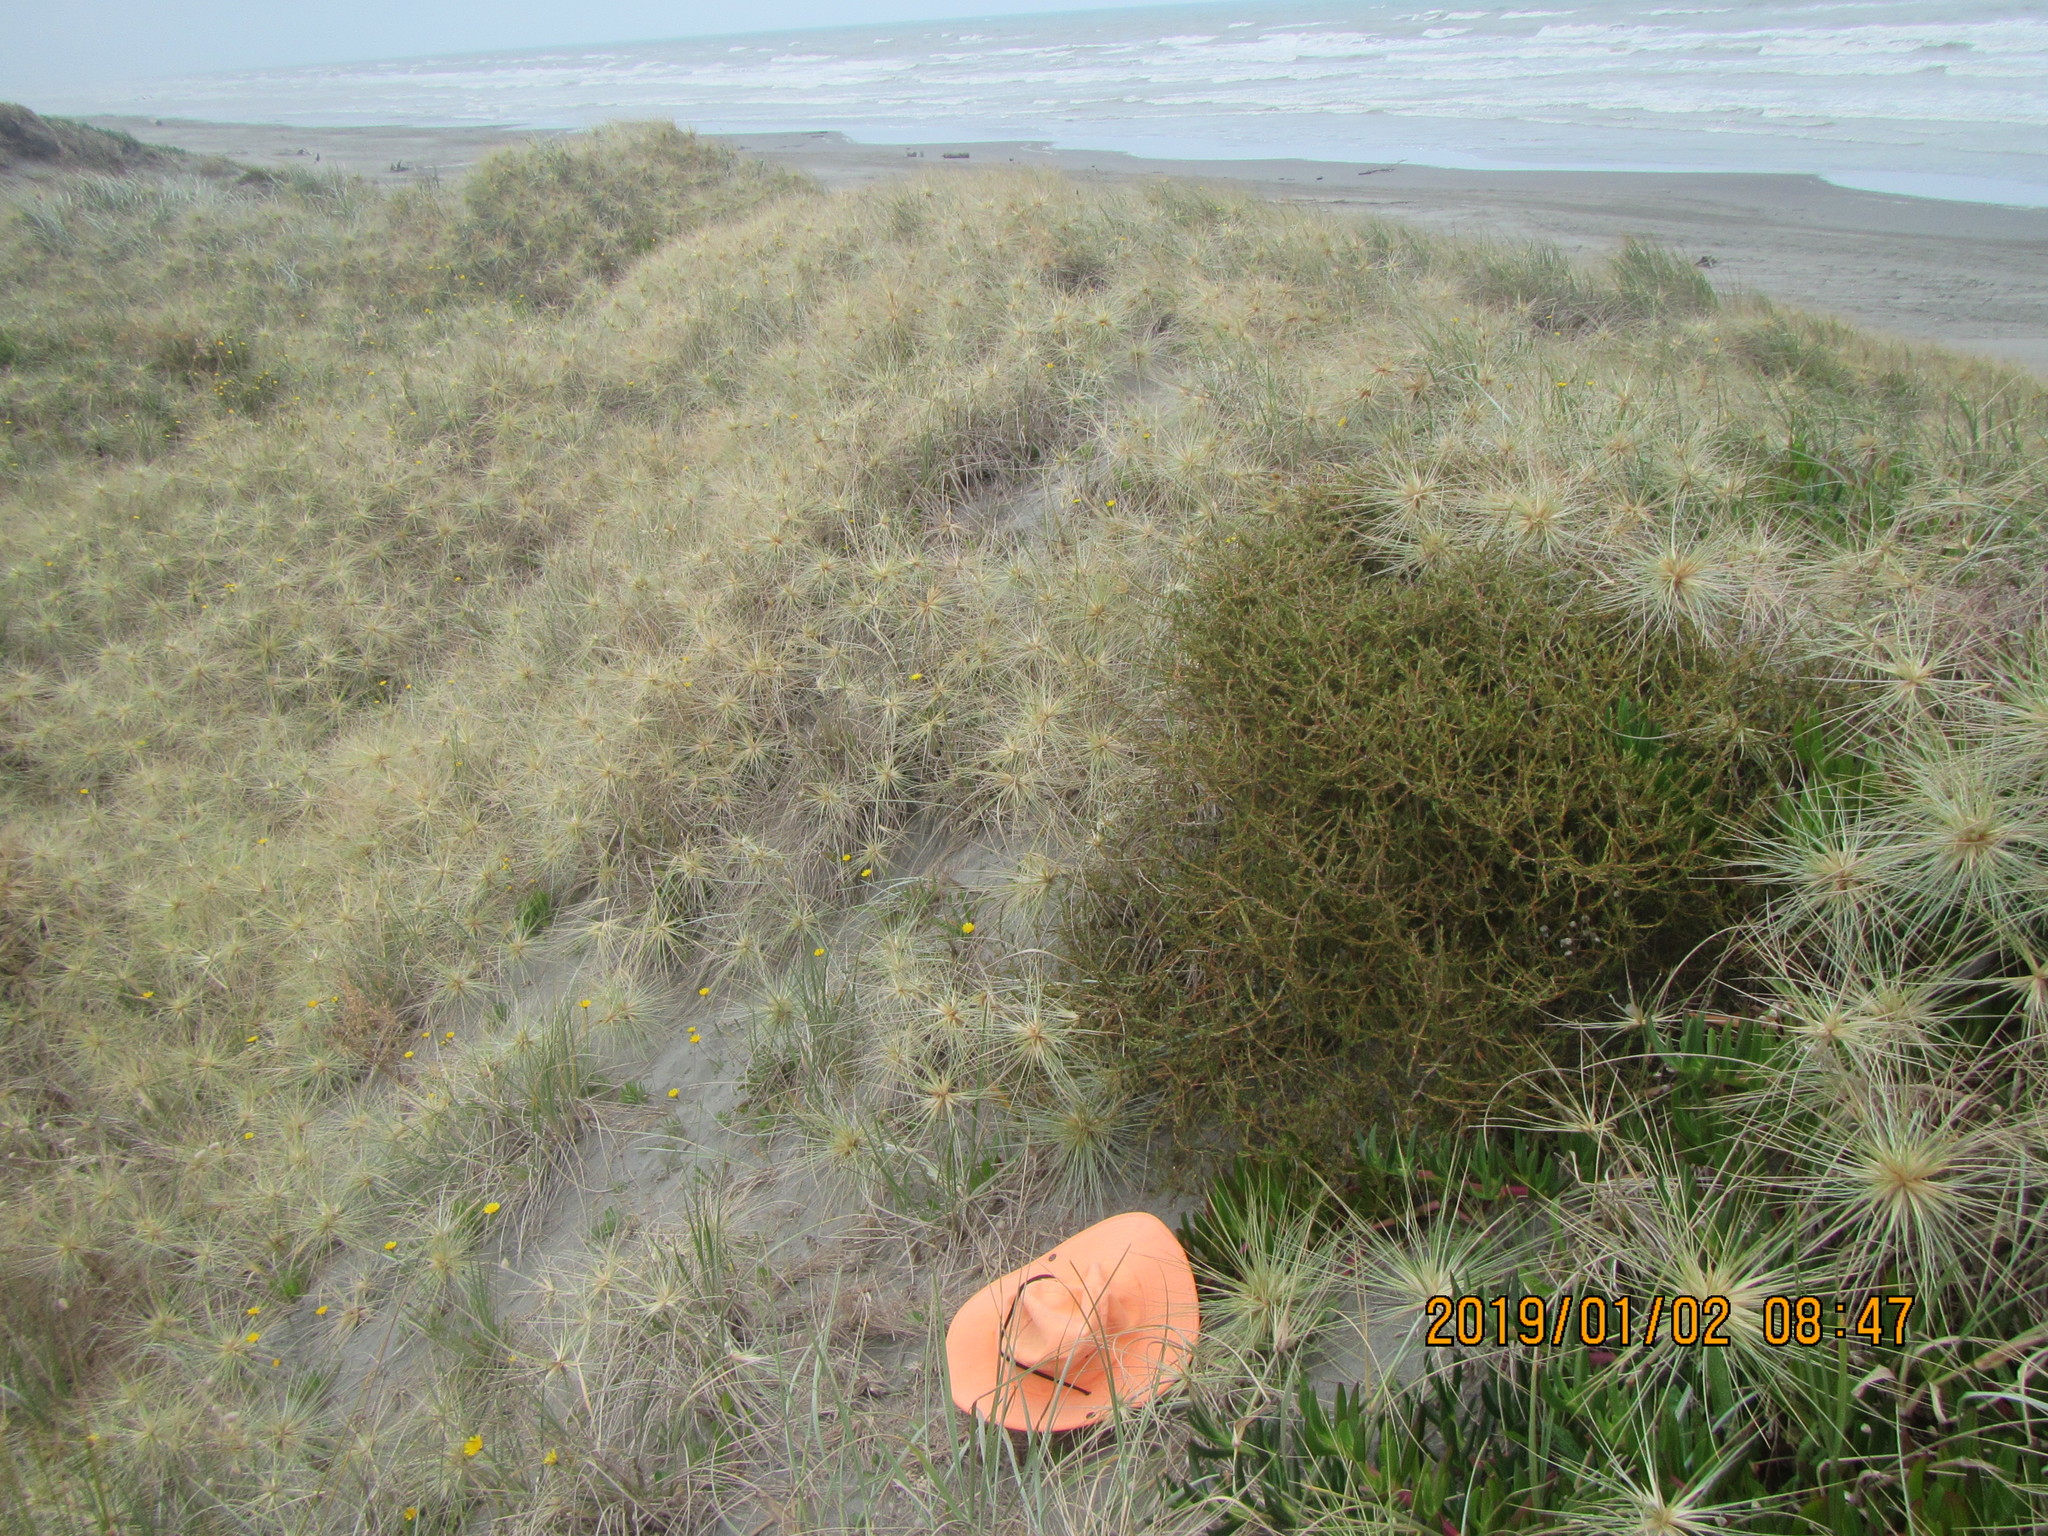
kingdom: Plantae
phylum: Tracheophyta
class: Magnoliopsida
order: Gentianales
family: Rubiaceae
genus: Coprosma
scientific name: Coprosma acerosa
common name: Sand coprosma
